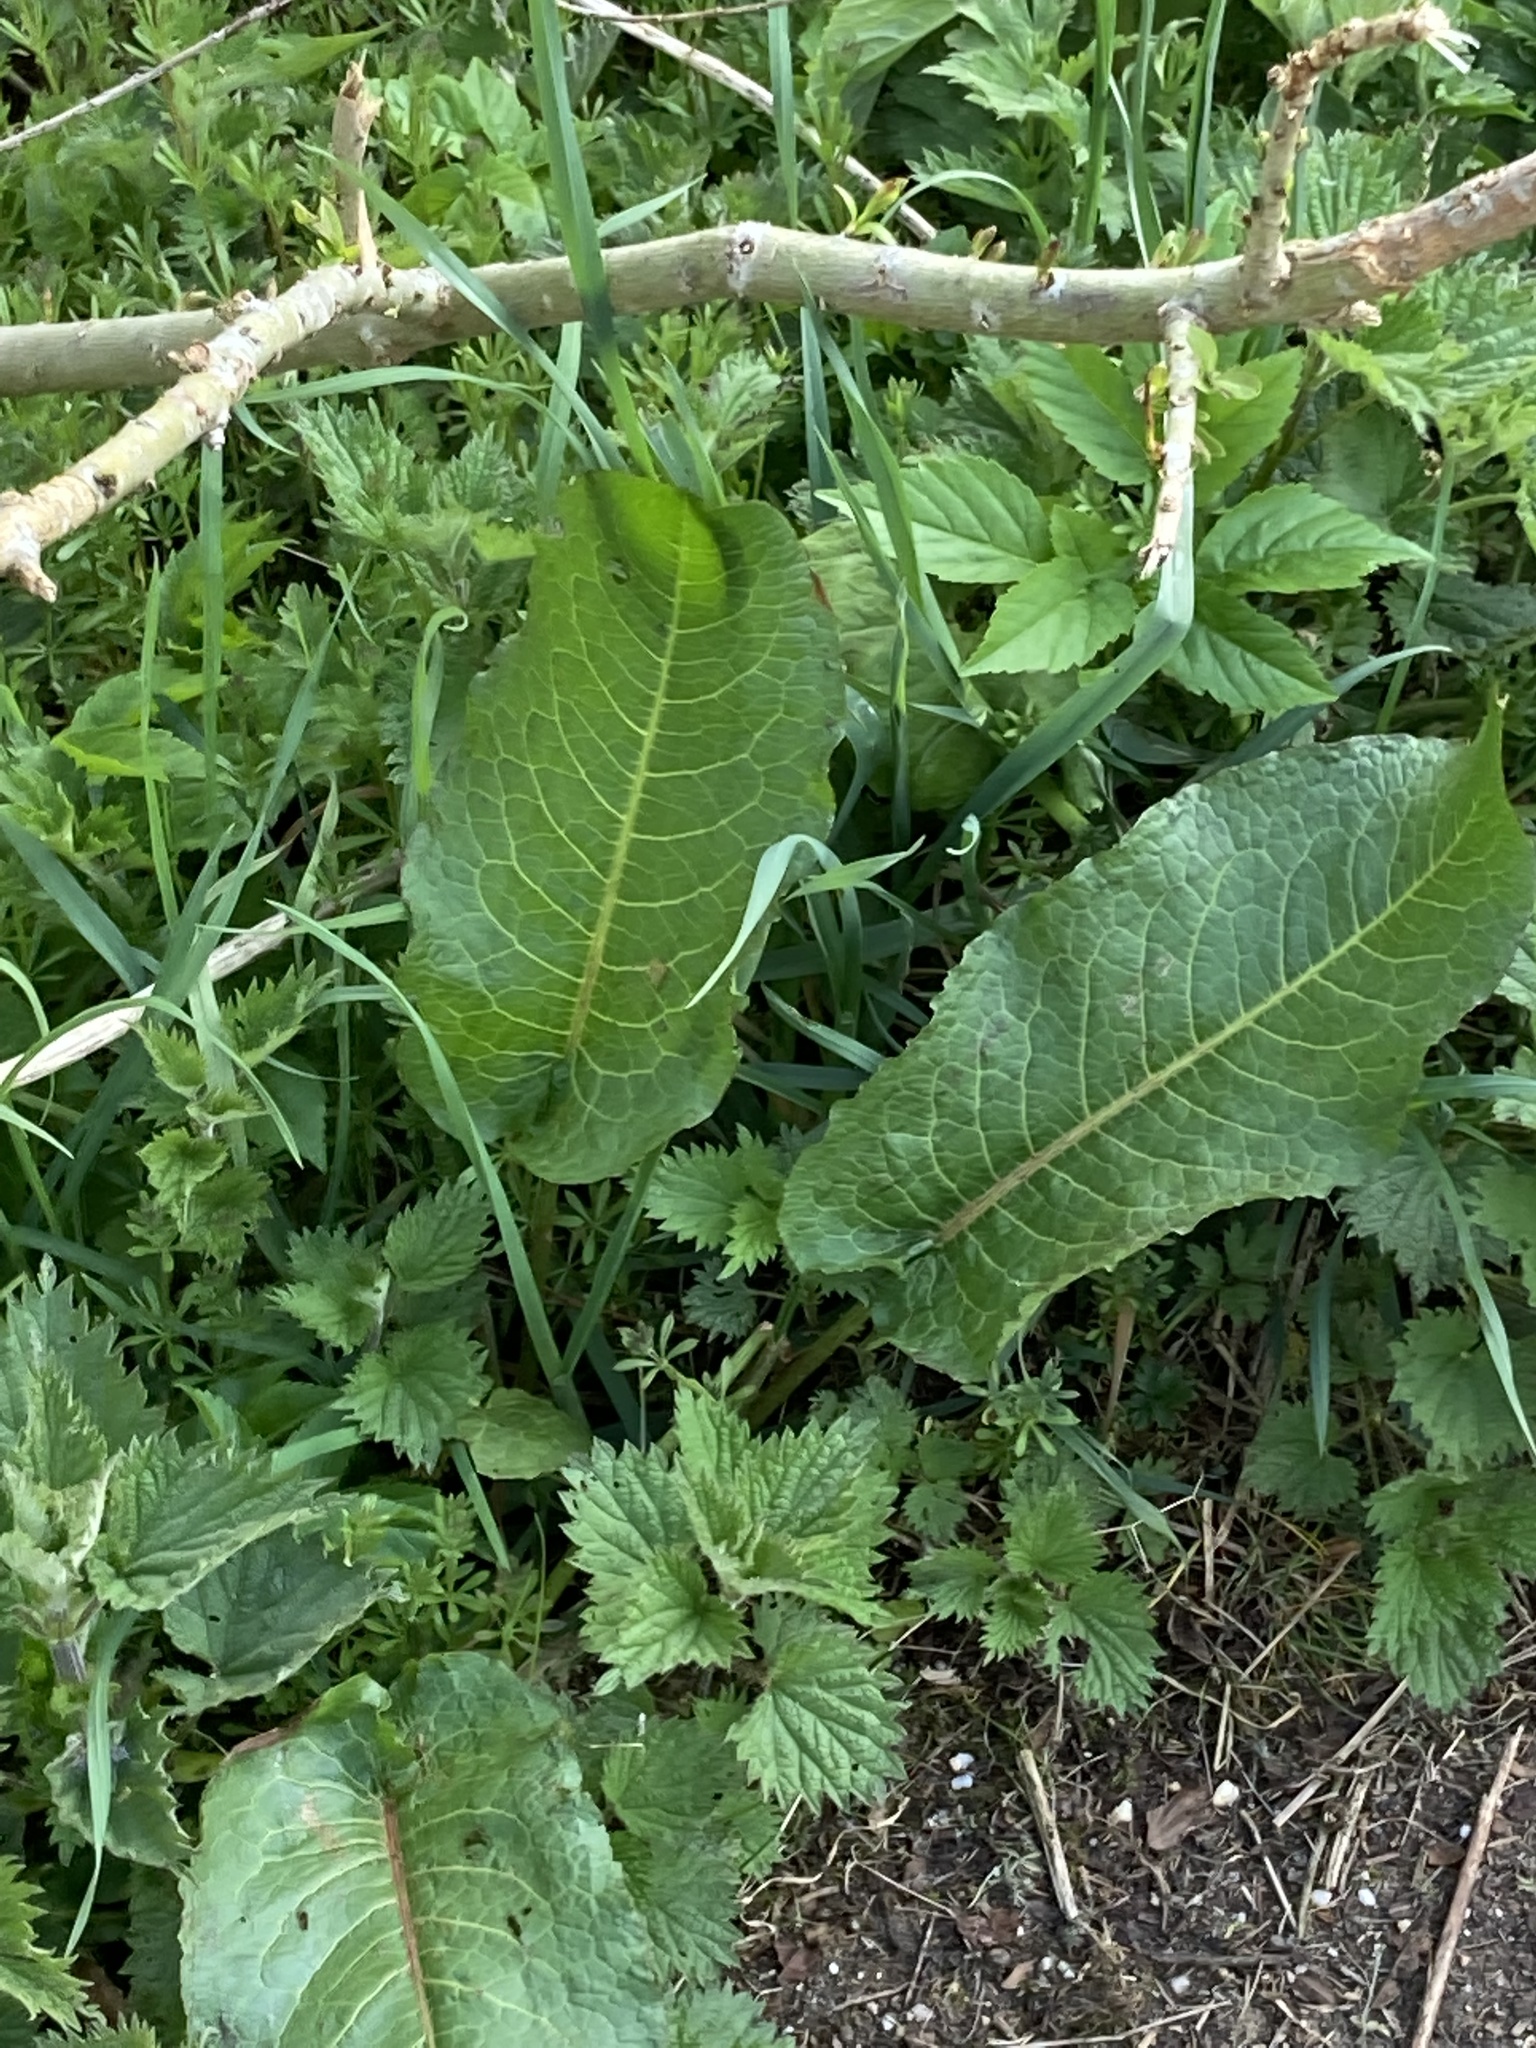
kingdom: Plantae
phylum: Tracheophyta
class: Magnoliopsida
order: Caryophyllales
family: Polygonaceae
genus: Rumex
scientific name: Rumex obtusifolius
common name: Bitter dock
